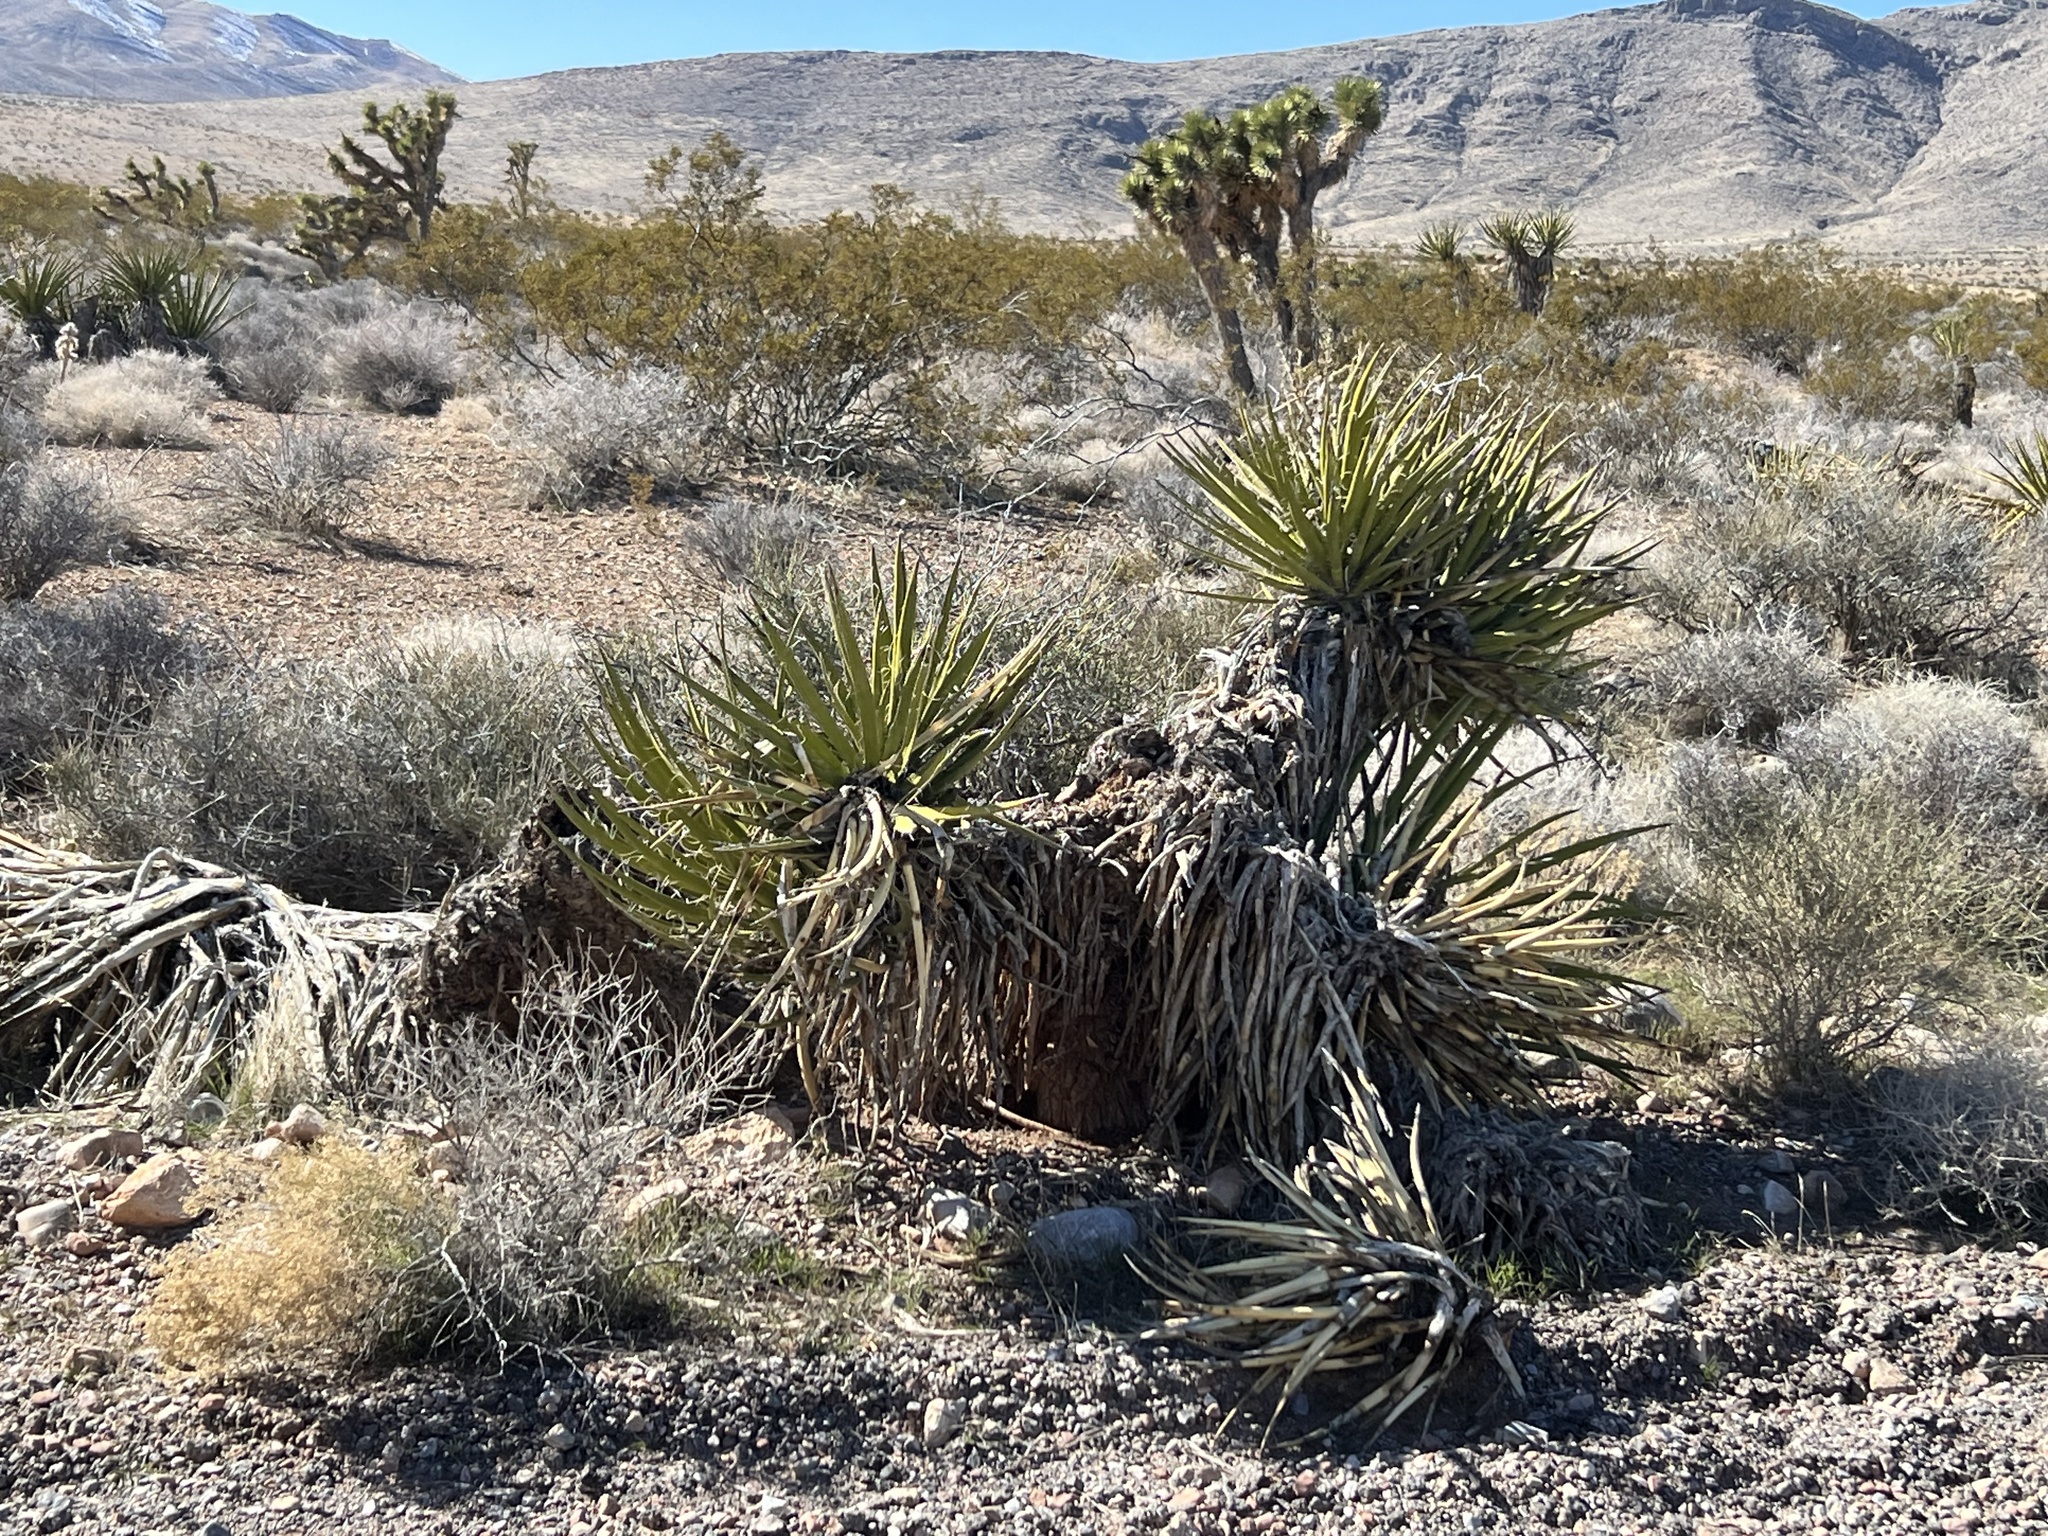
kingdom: Plantae
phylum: Tracheophyta
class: Liliopsida
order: Asparagales
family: Asparagaceae
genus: Yucca
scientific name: Yucca schidigera
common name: Mojave yucca
